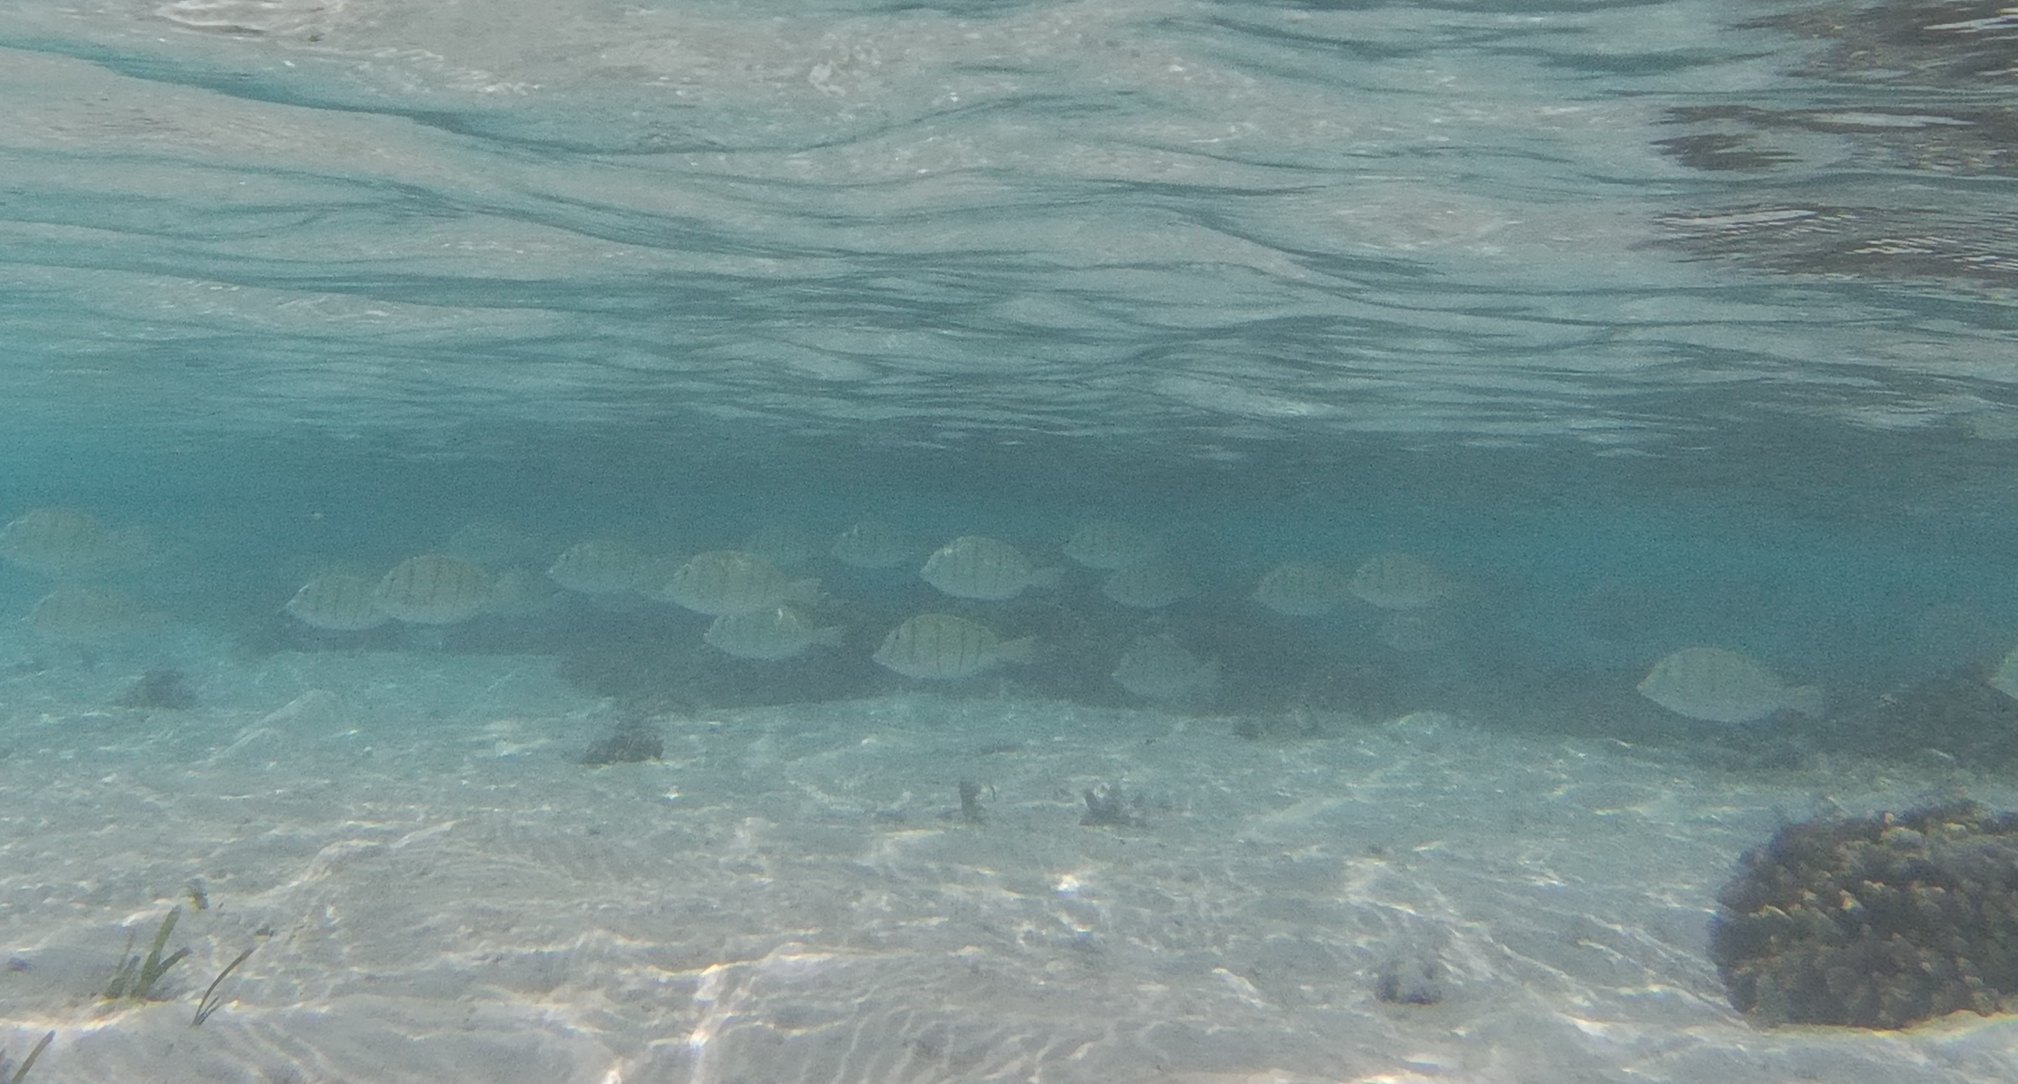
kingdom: Animalia
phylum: Chordata
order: Perciformes
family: Acanthuridae
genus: Acanthurus
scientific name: Acanthurus triostegus
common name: Convict surgeonfish
